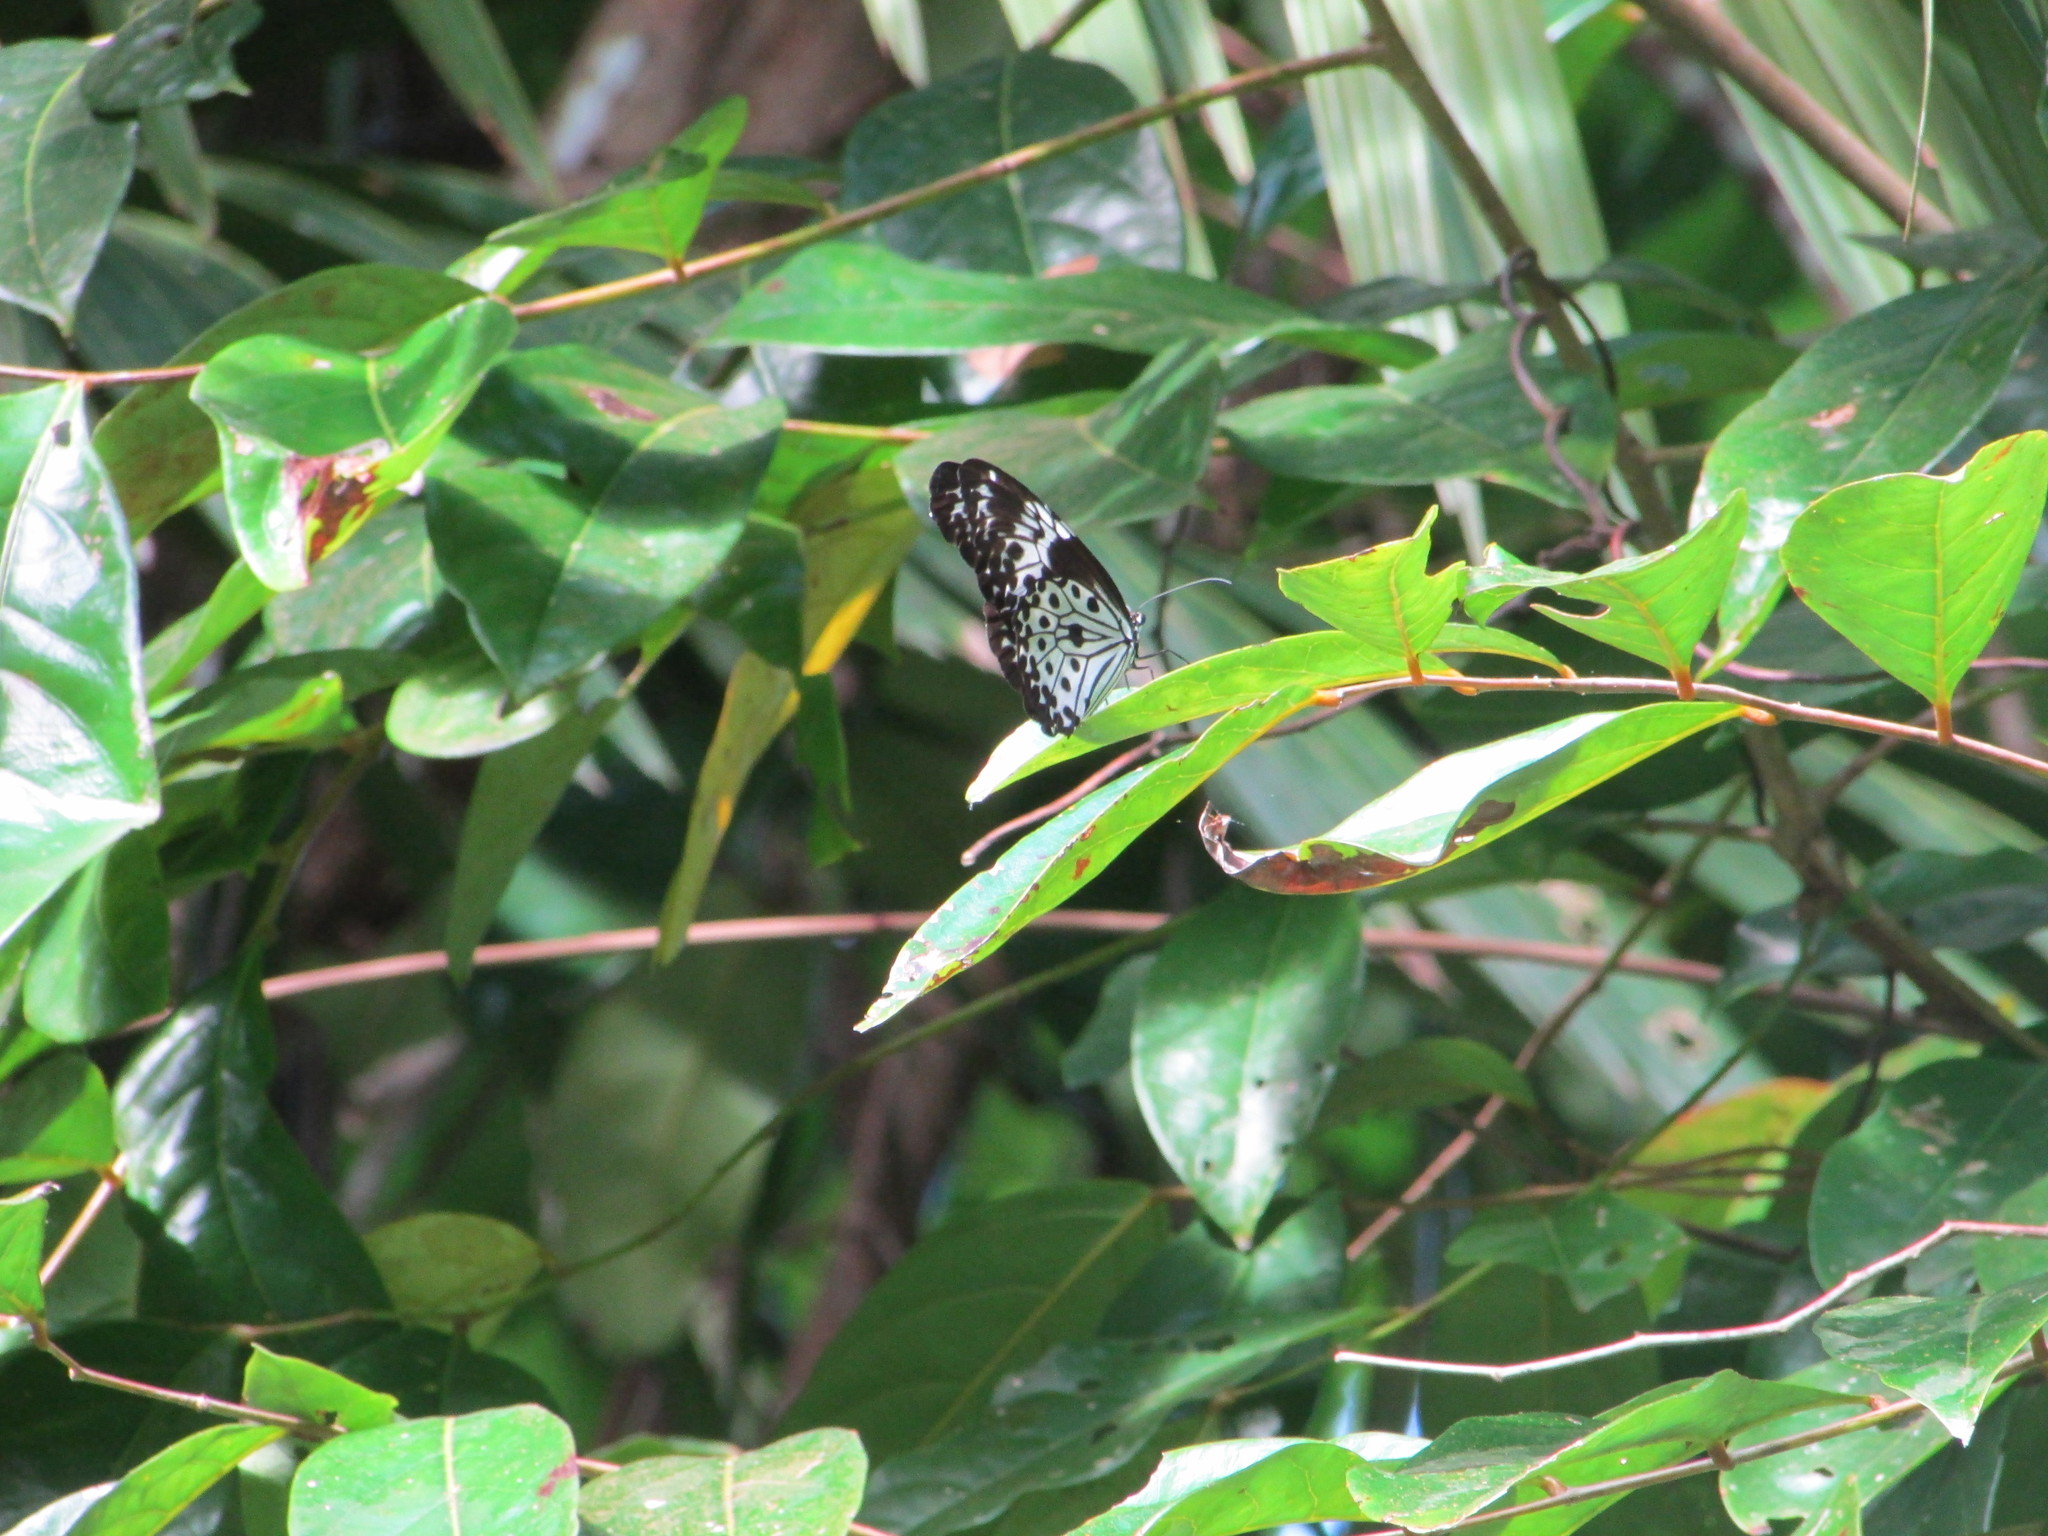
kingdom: Animalia
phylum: Arthropoda
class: Insecta
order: Lepidoptera
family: Nymphalidae
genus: Idea
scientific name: Idea agamarschana
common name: Andaman tree nymph
